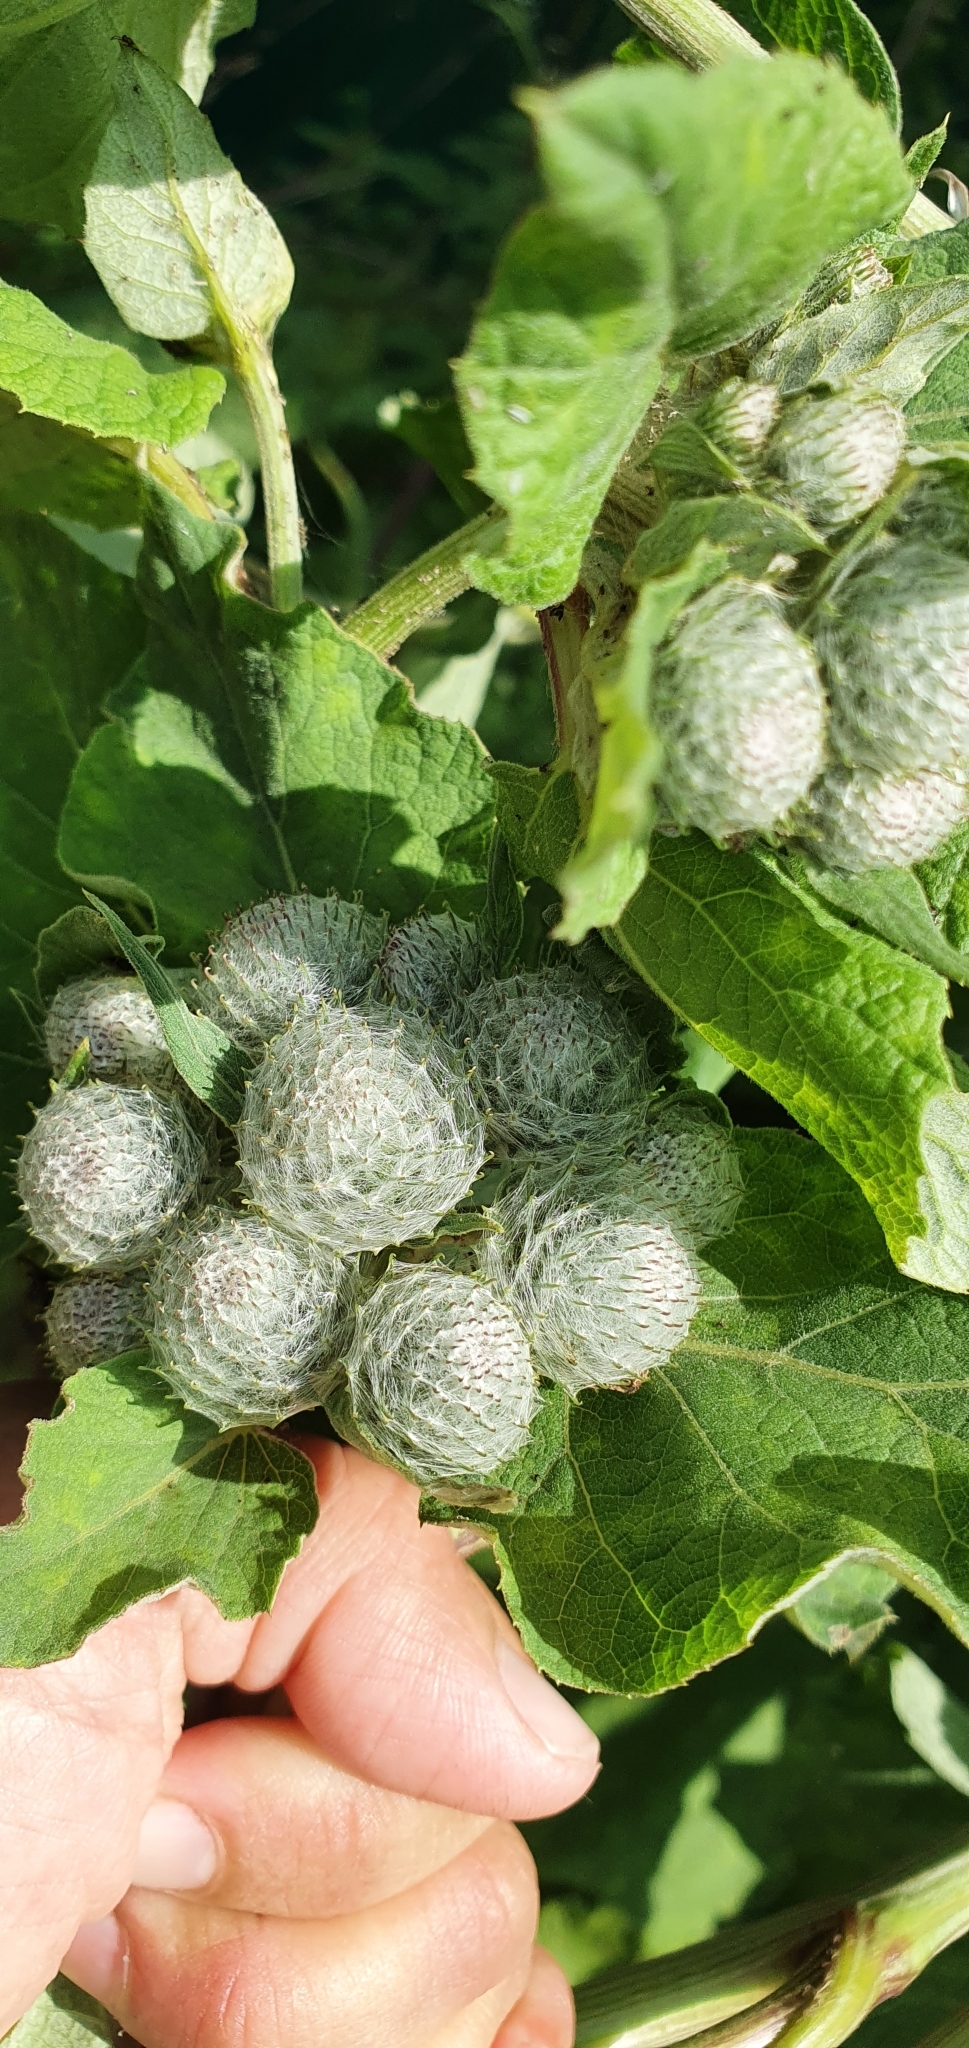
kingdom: Plantae
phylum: Tracheophyta
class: Magnoliopsida
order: Asterales
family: Asteraceae
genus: Arctium
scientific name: Arctium tomentosum
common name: Woolly burdock
